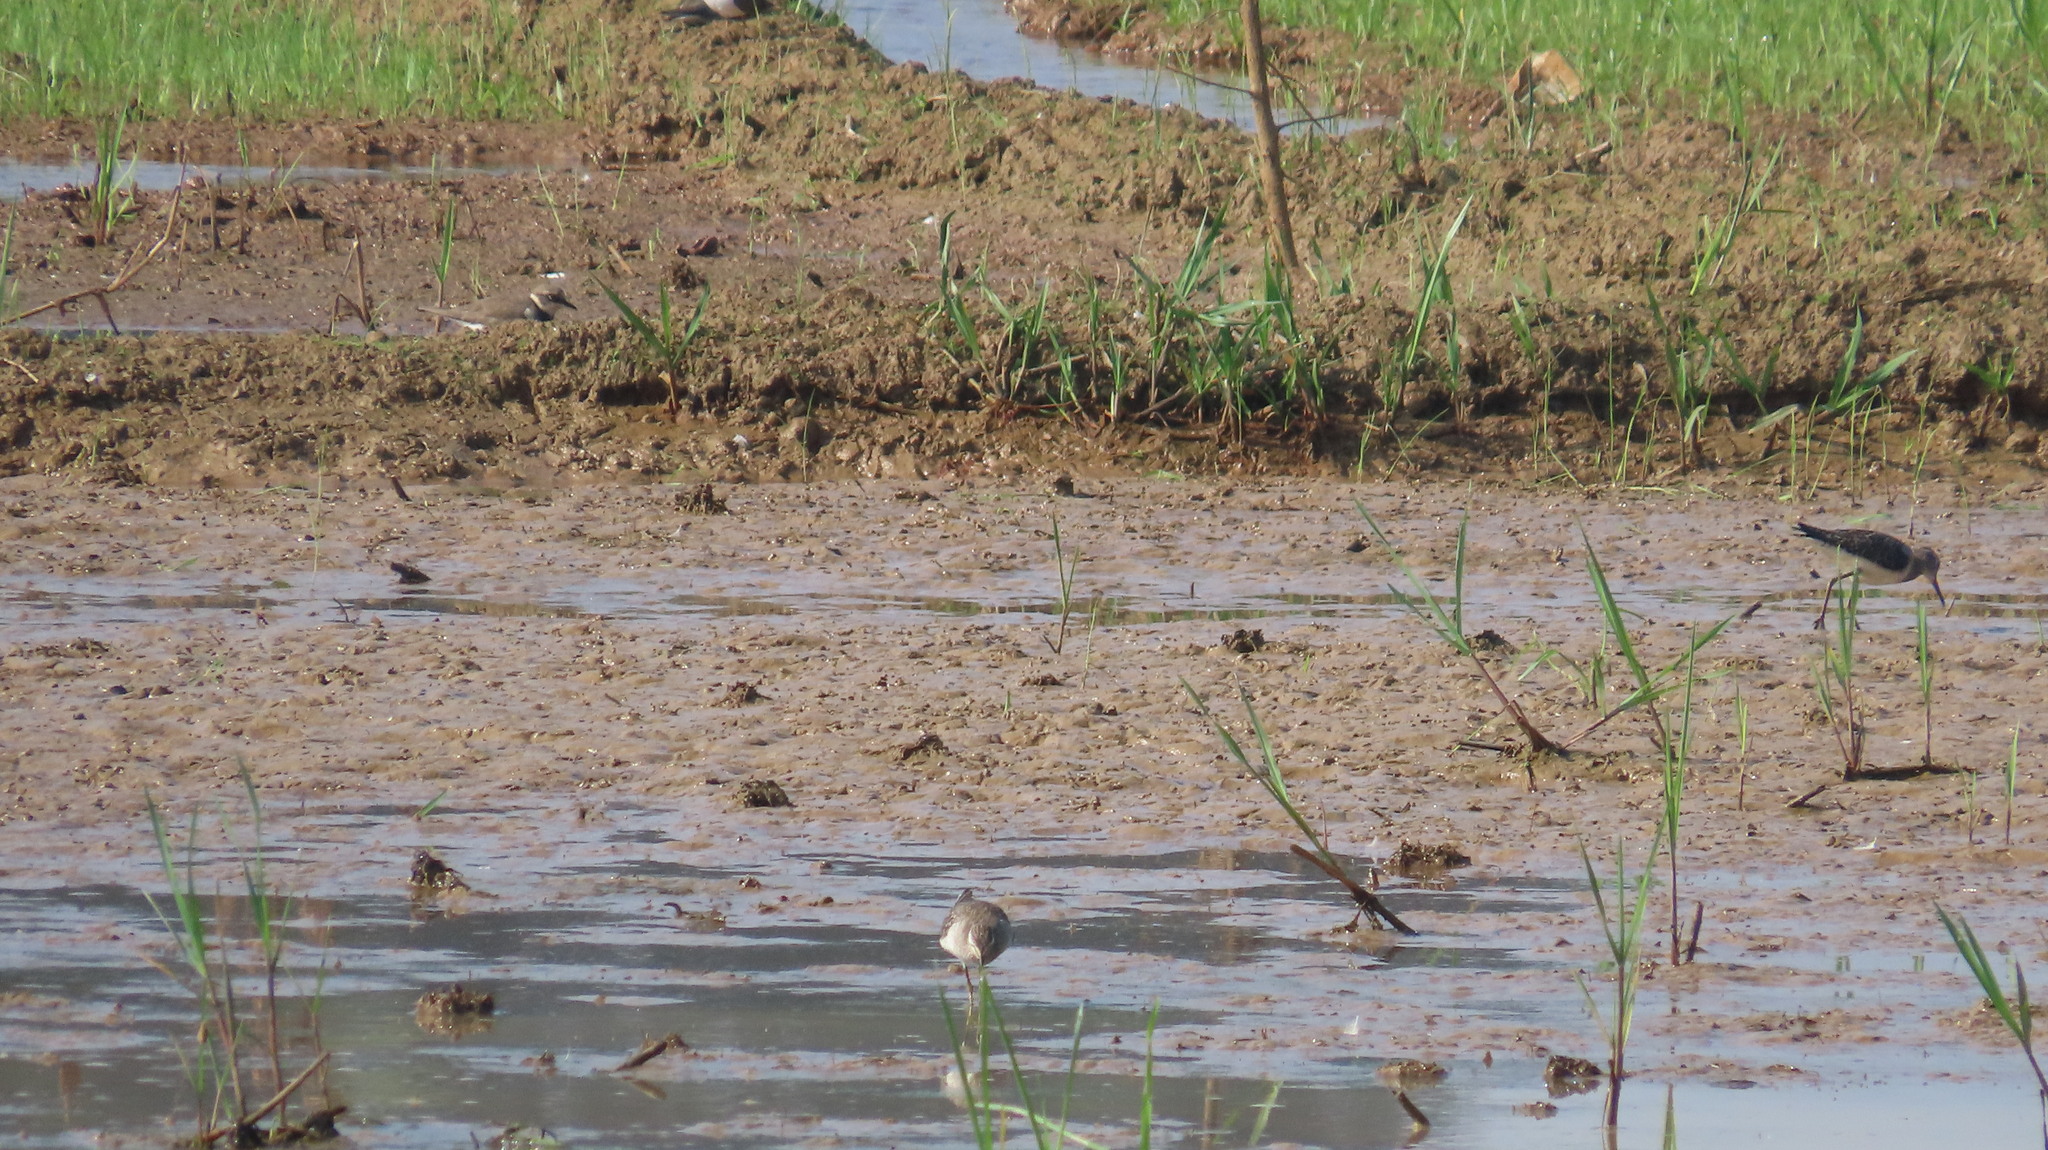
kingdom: Animalia
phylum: Chordata
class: Aves
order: Charadriiformes
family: Scolopacidae
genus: Tringa
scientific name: Tringa glareola
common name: Wood sandpiper
